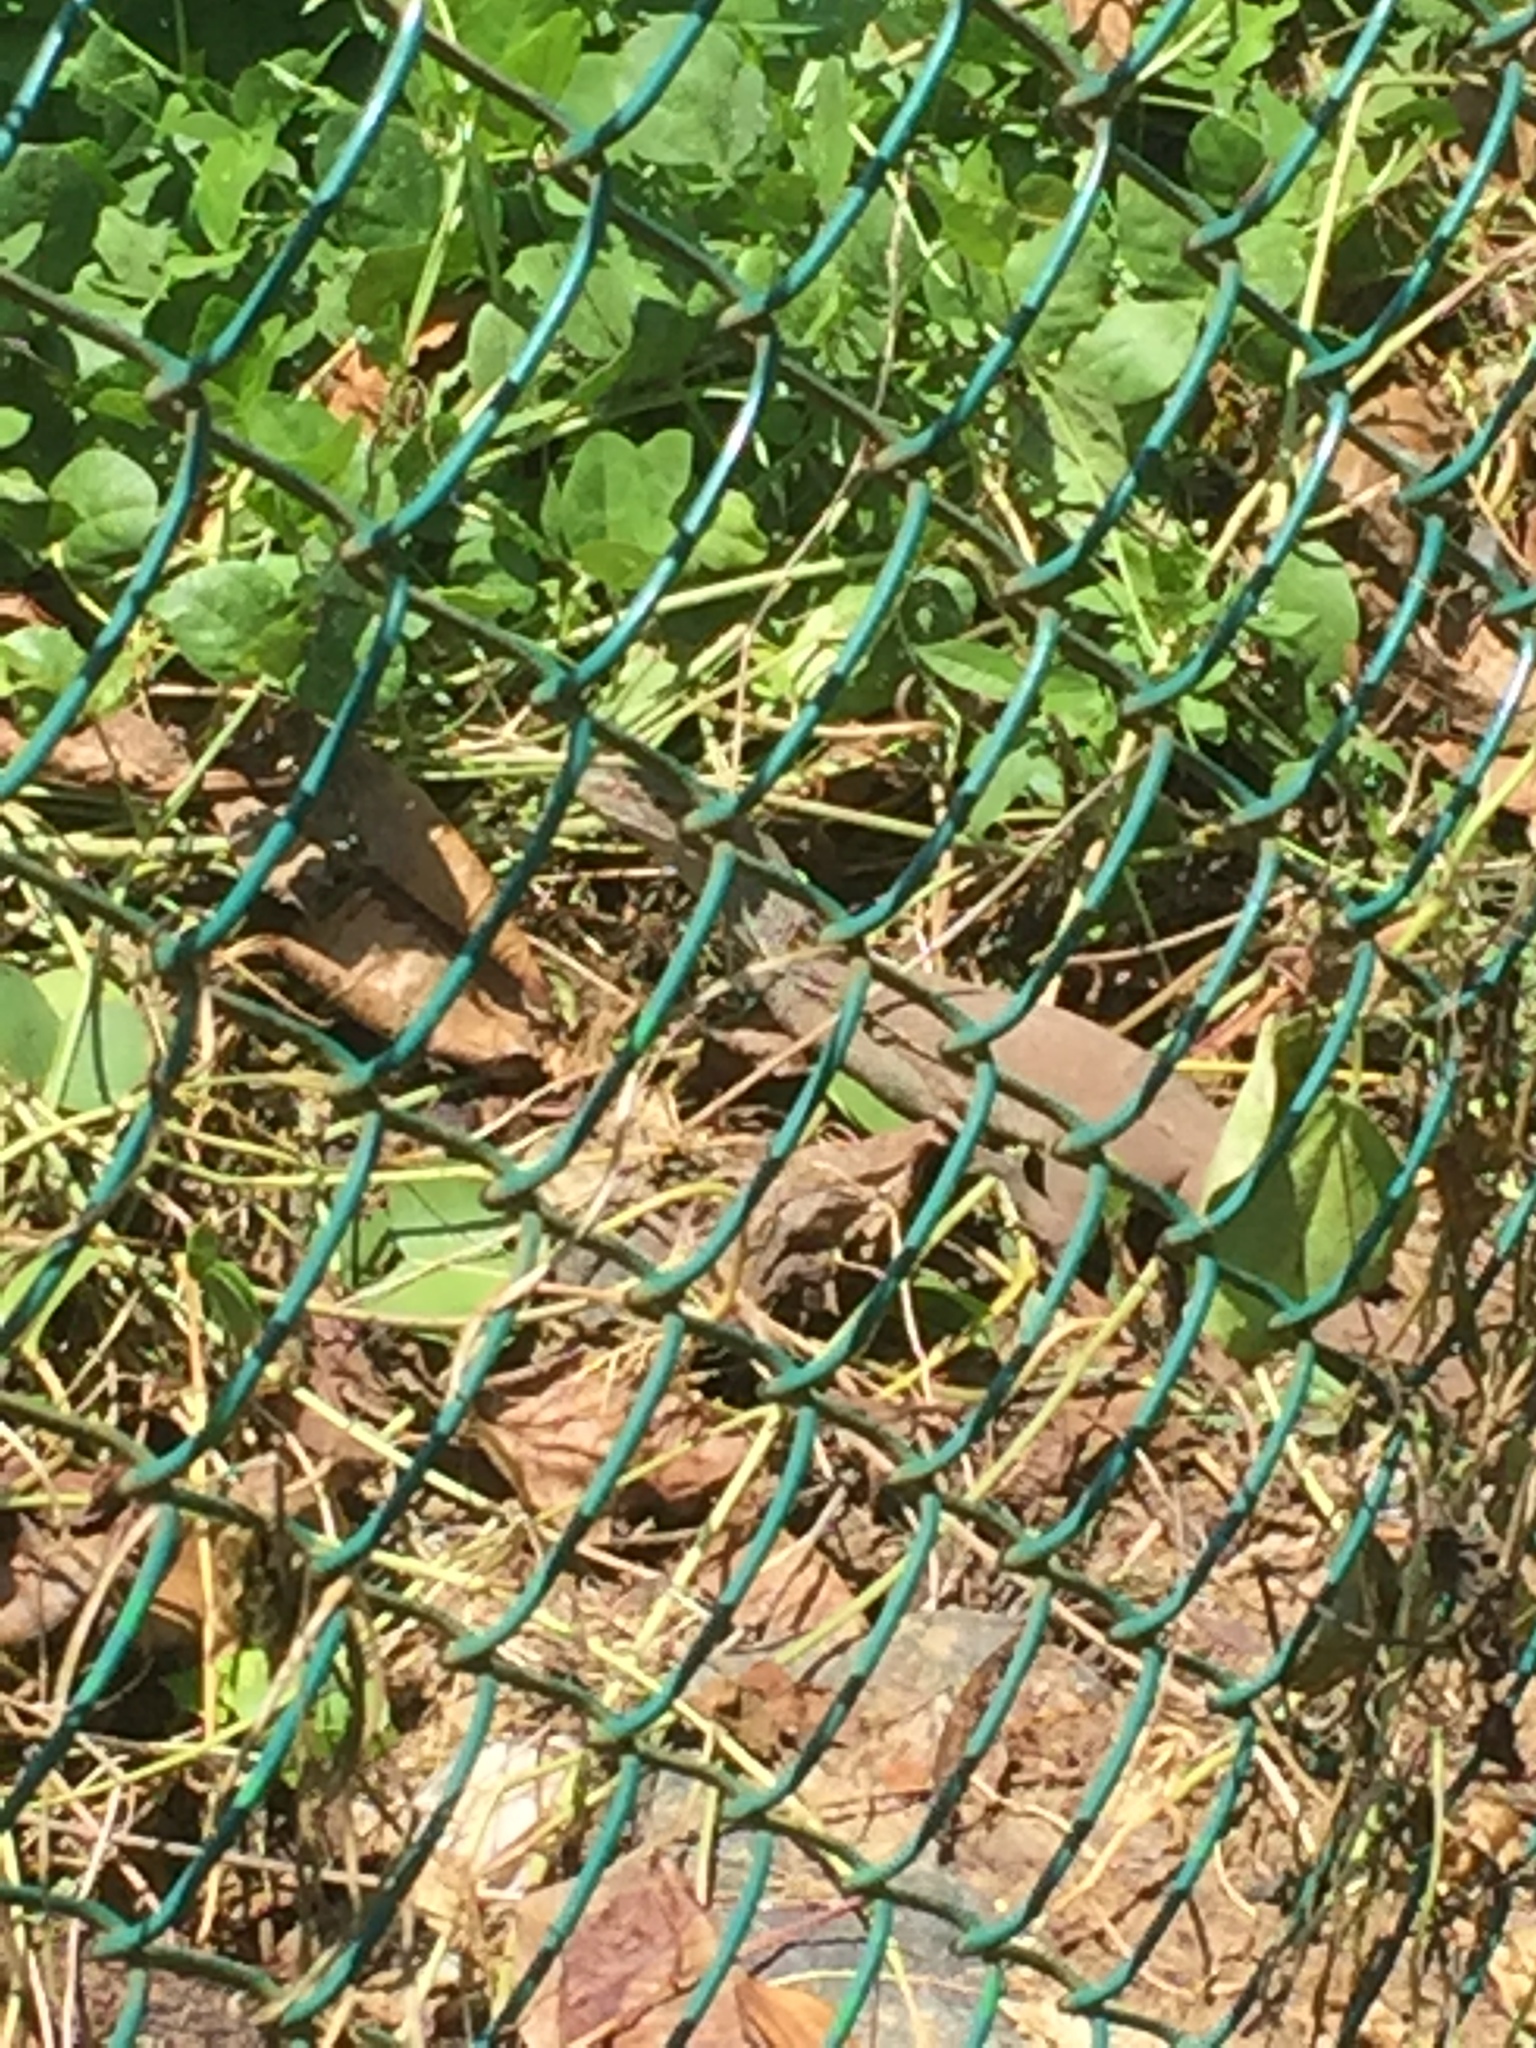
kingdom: Animalia
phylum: Chordata
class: Squamata
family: Varanidae
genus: Varanus
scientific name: Varanus bengalensis
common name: Bengal monitor
